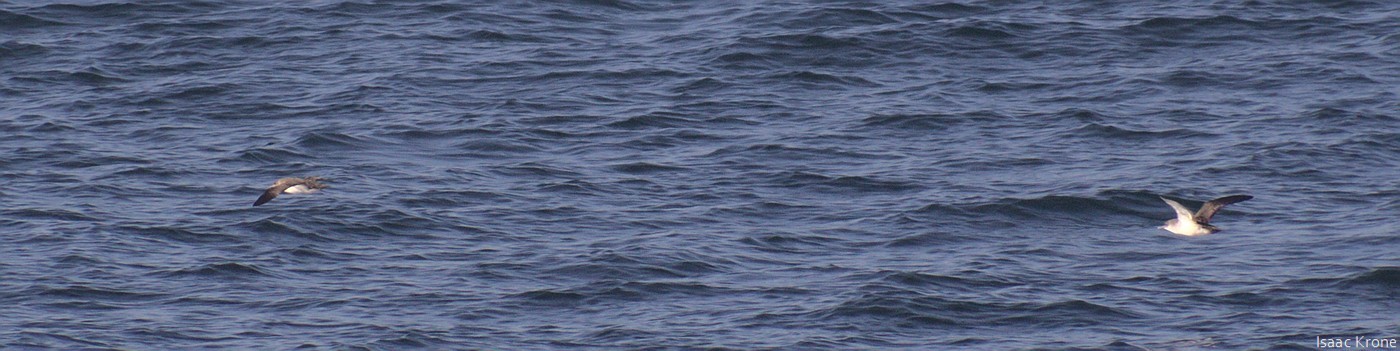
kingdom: Animalia
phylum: Chordata
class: Aves
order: Procellariiformes
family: Procellariidae
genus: Puffinus
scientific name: Puffinus opisthomelas
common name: Black-vented shearwater
